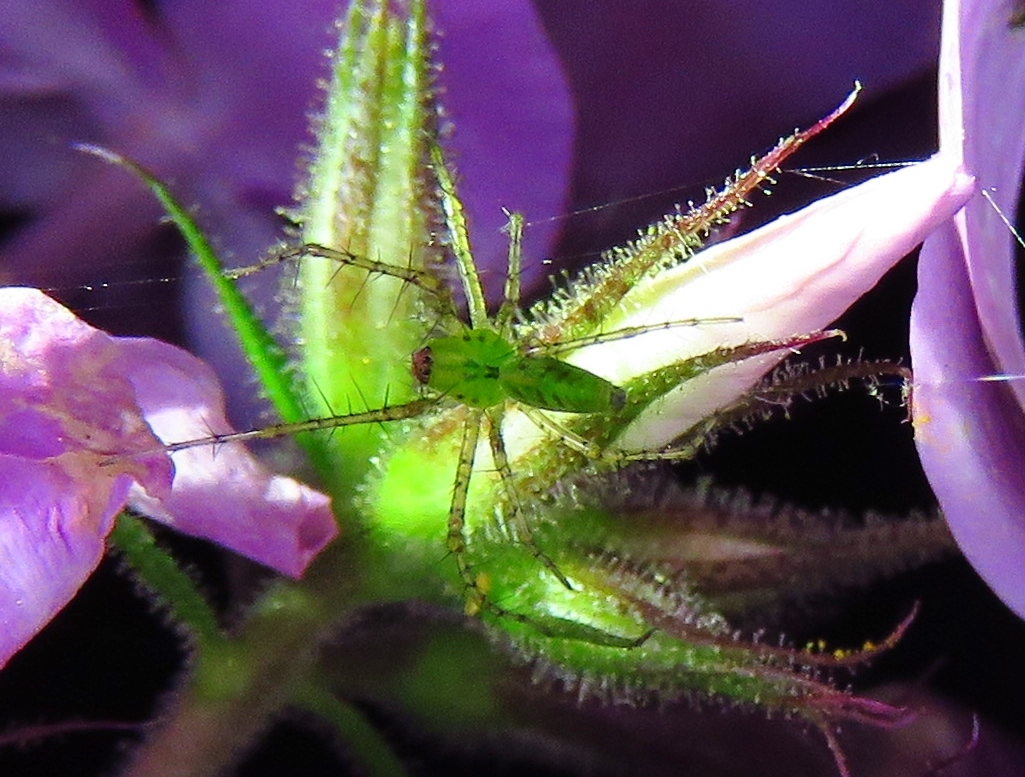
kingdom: Animalia
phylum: Arthropoda
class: Arachnida
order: Araneae
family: Oxyopidae
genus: Peucetia
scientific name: Peucetia viridans
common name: Lynx spiders
